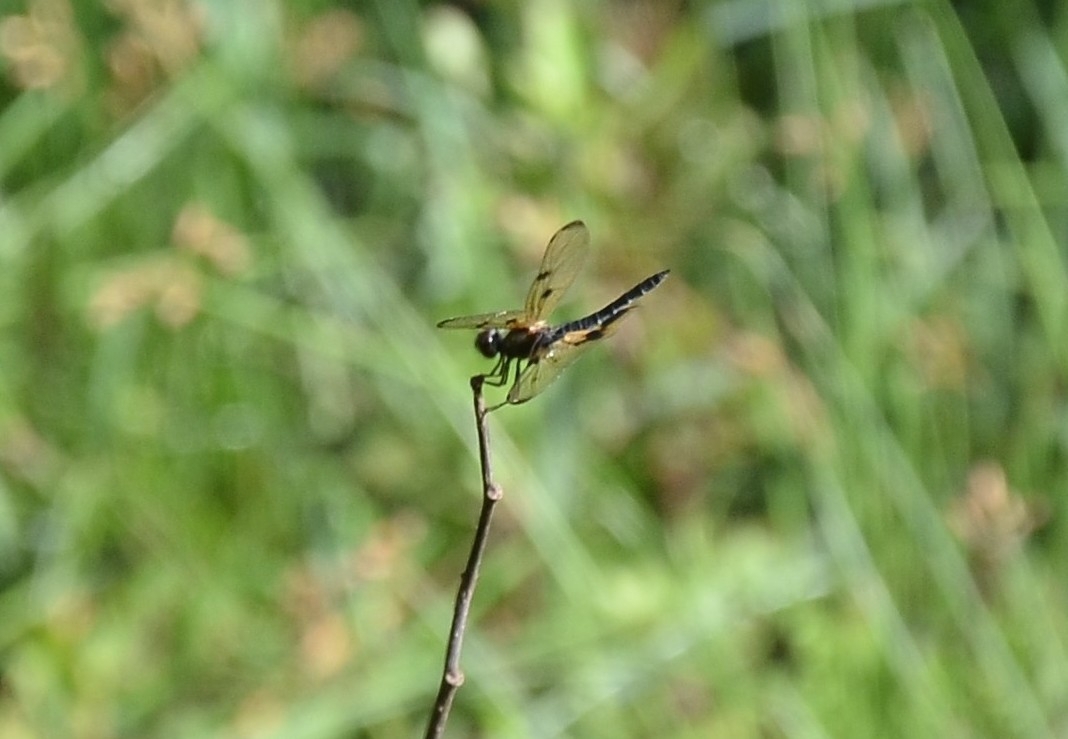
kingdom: Animalia
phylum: Arthropoda
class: Insecta
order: Odonata
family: Libellulidae
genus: Rhyothemis
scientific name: Rhyothemis variegata
